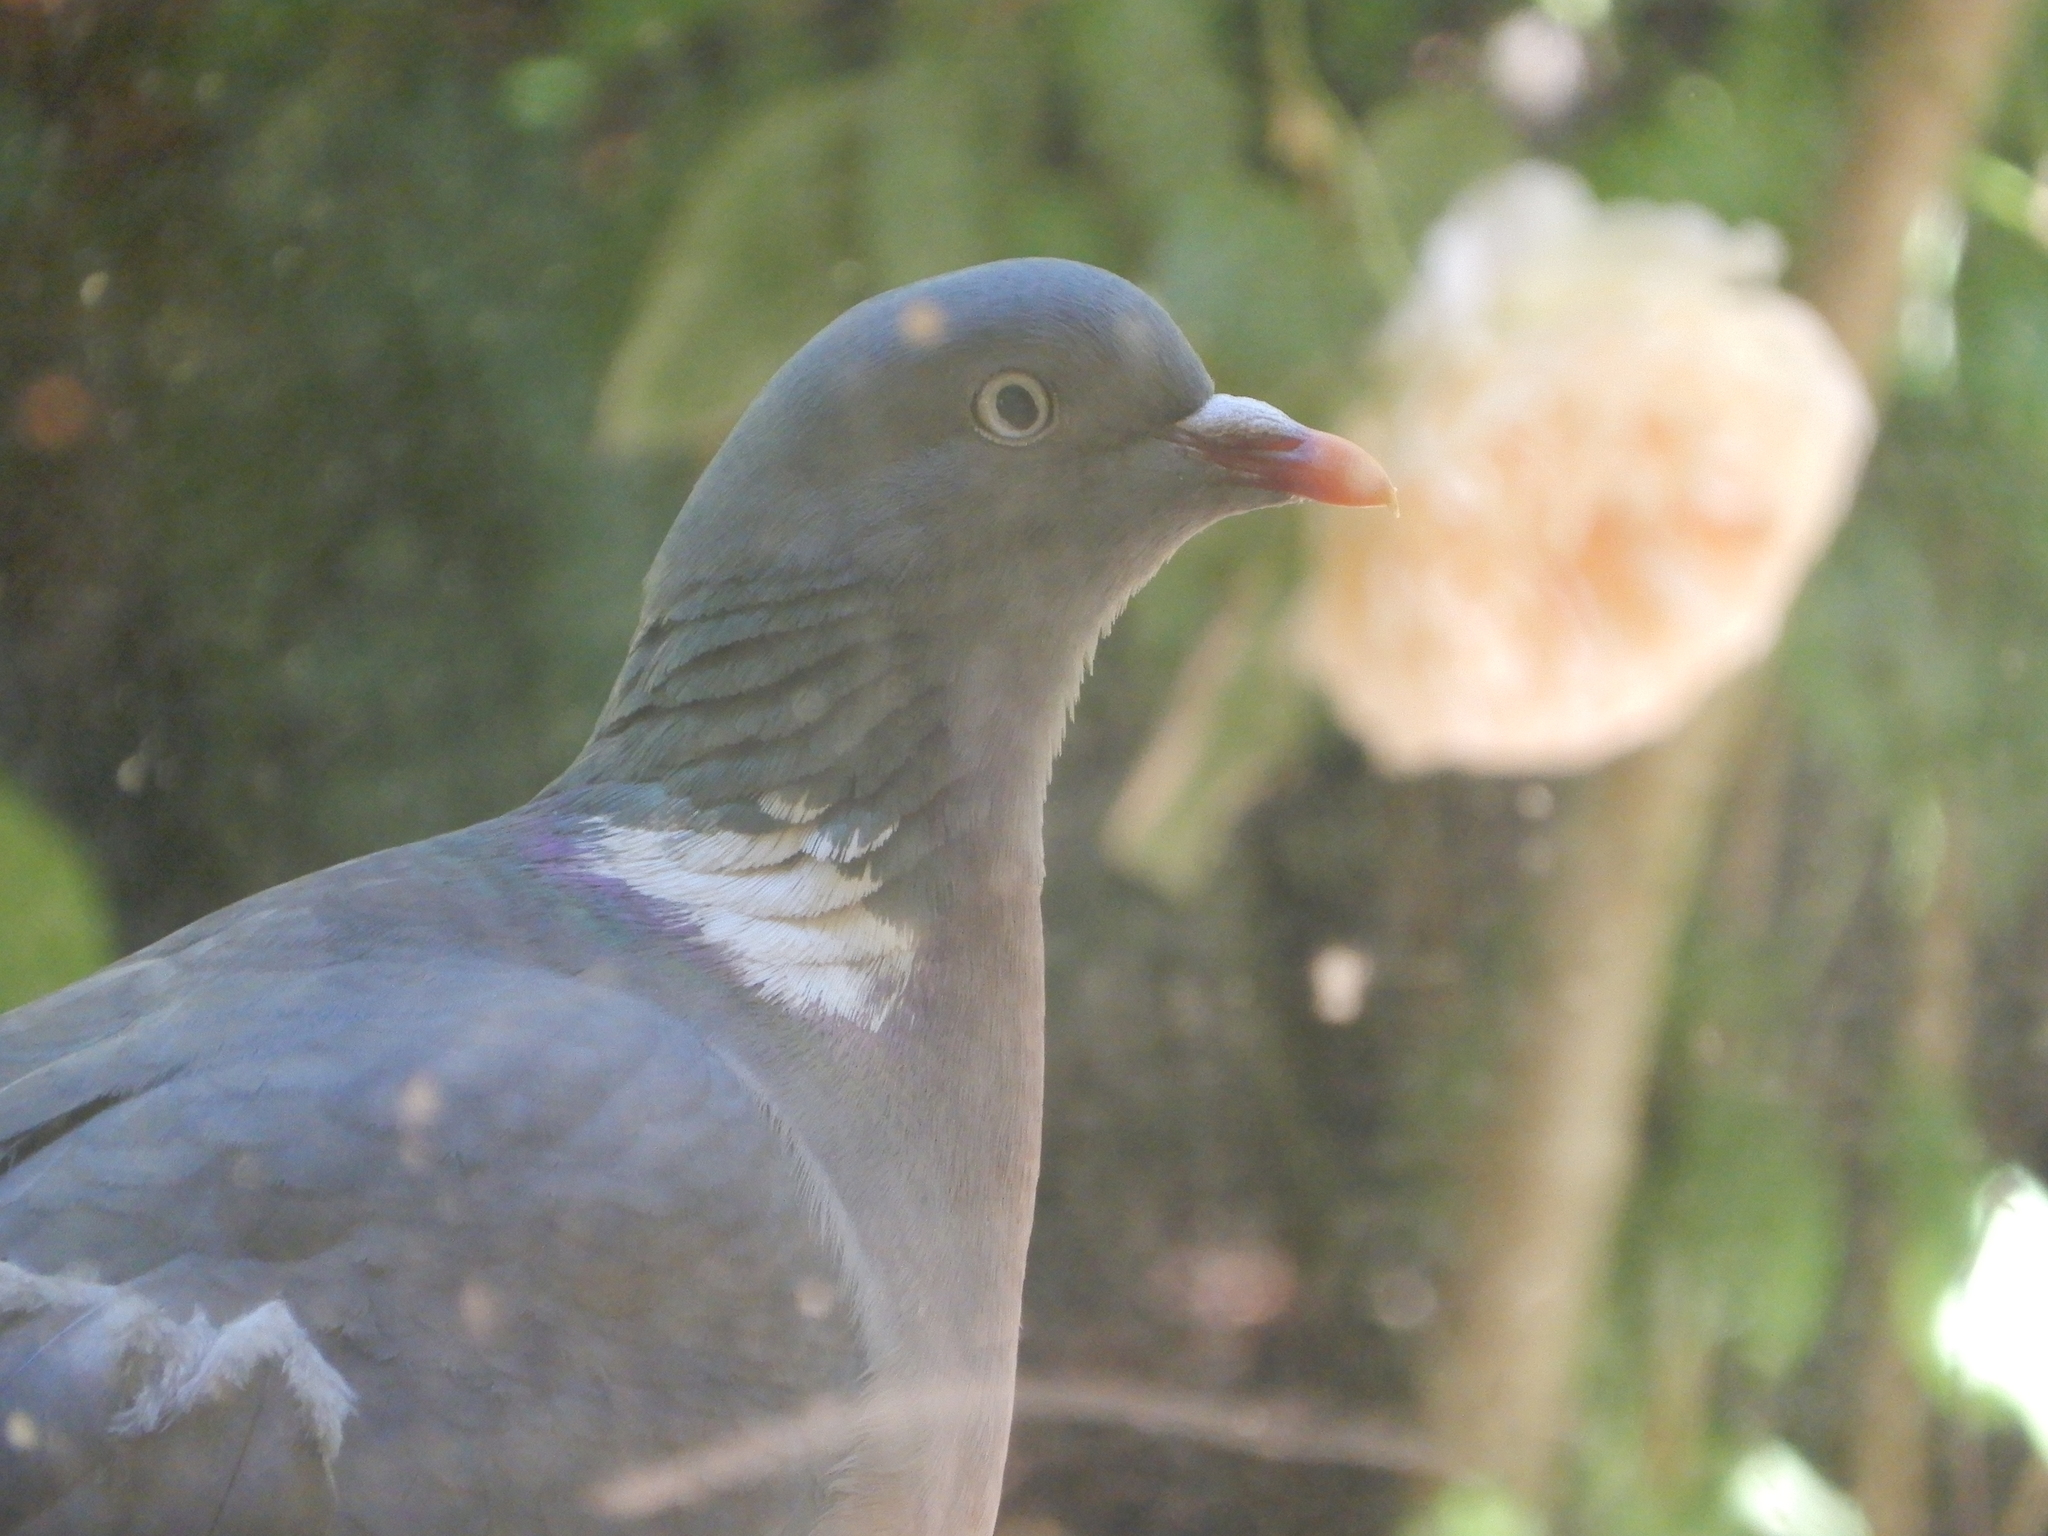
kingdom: Animalia
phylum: Chordata
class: Aves
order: Columbiformes
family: Columbidae
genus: Columba
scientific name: Columba palumbus
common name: Common wood pigeon
